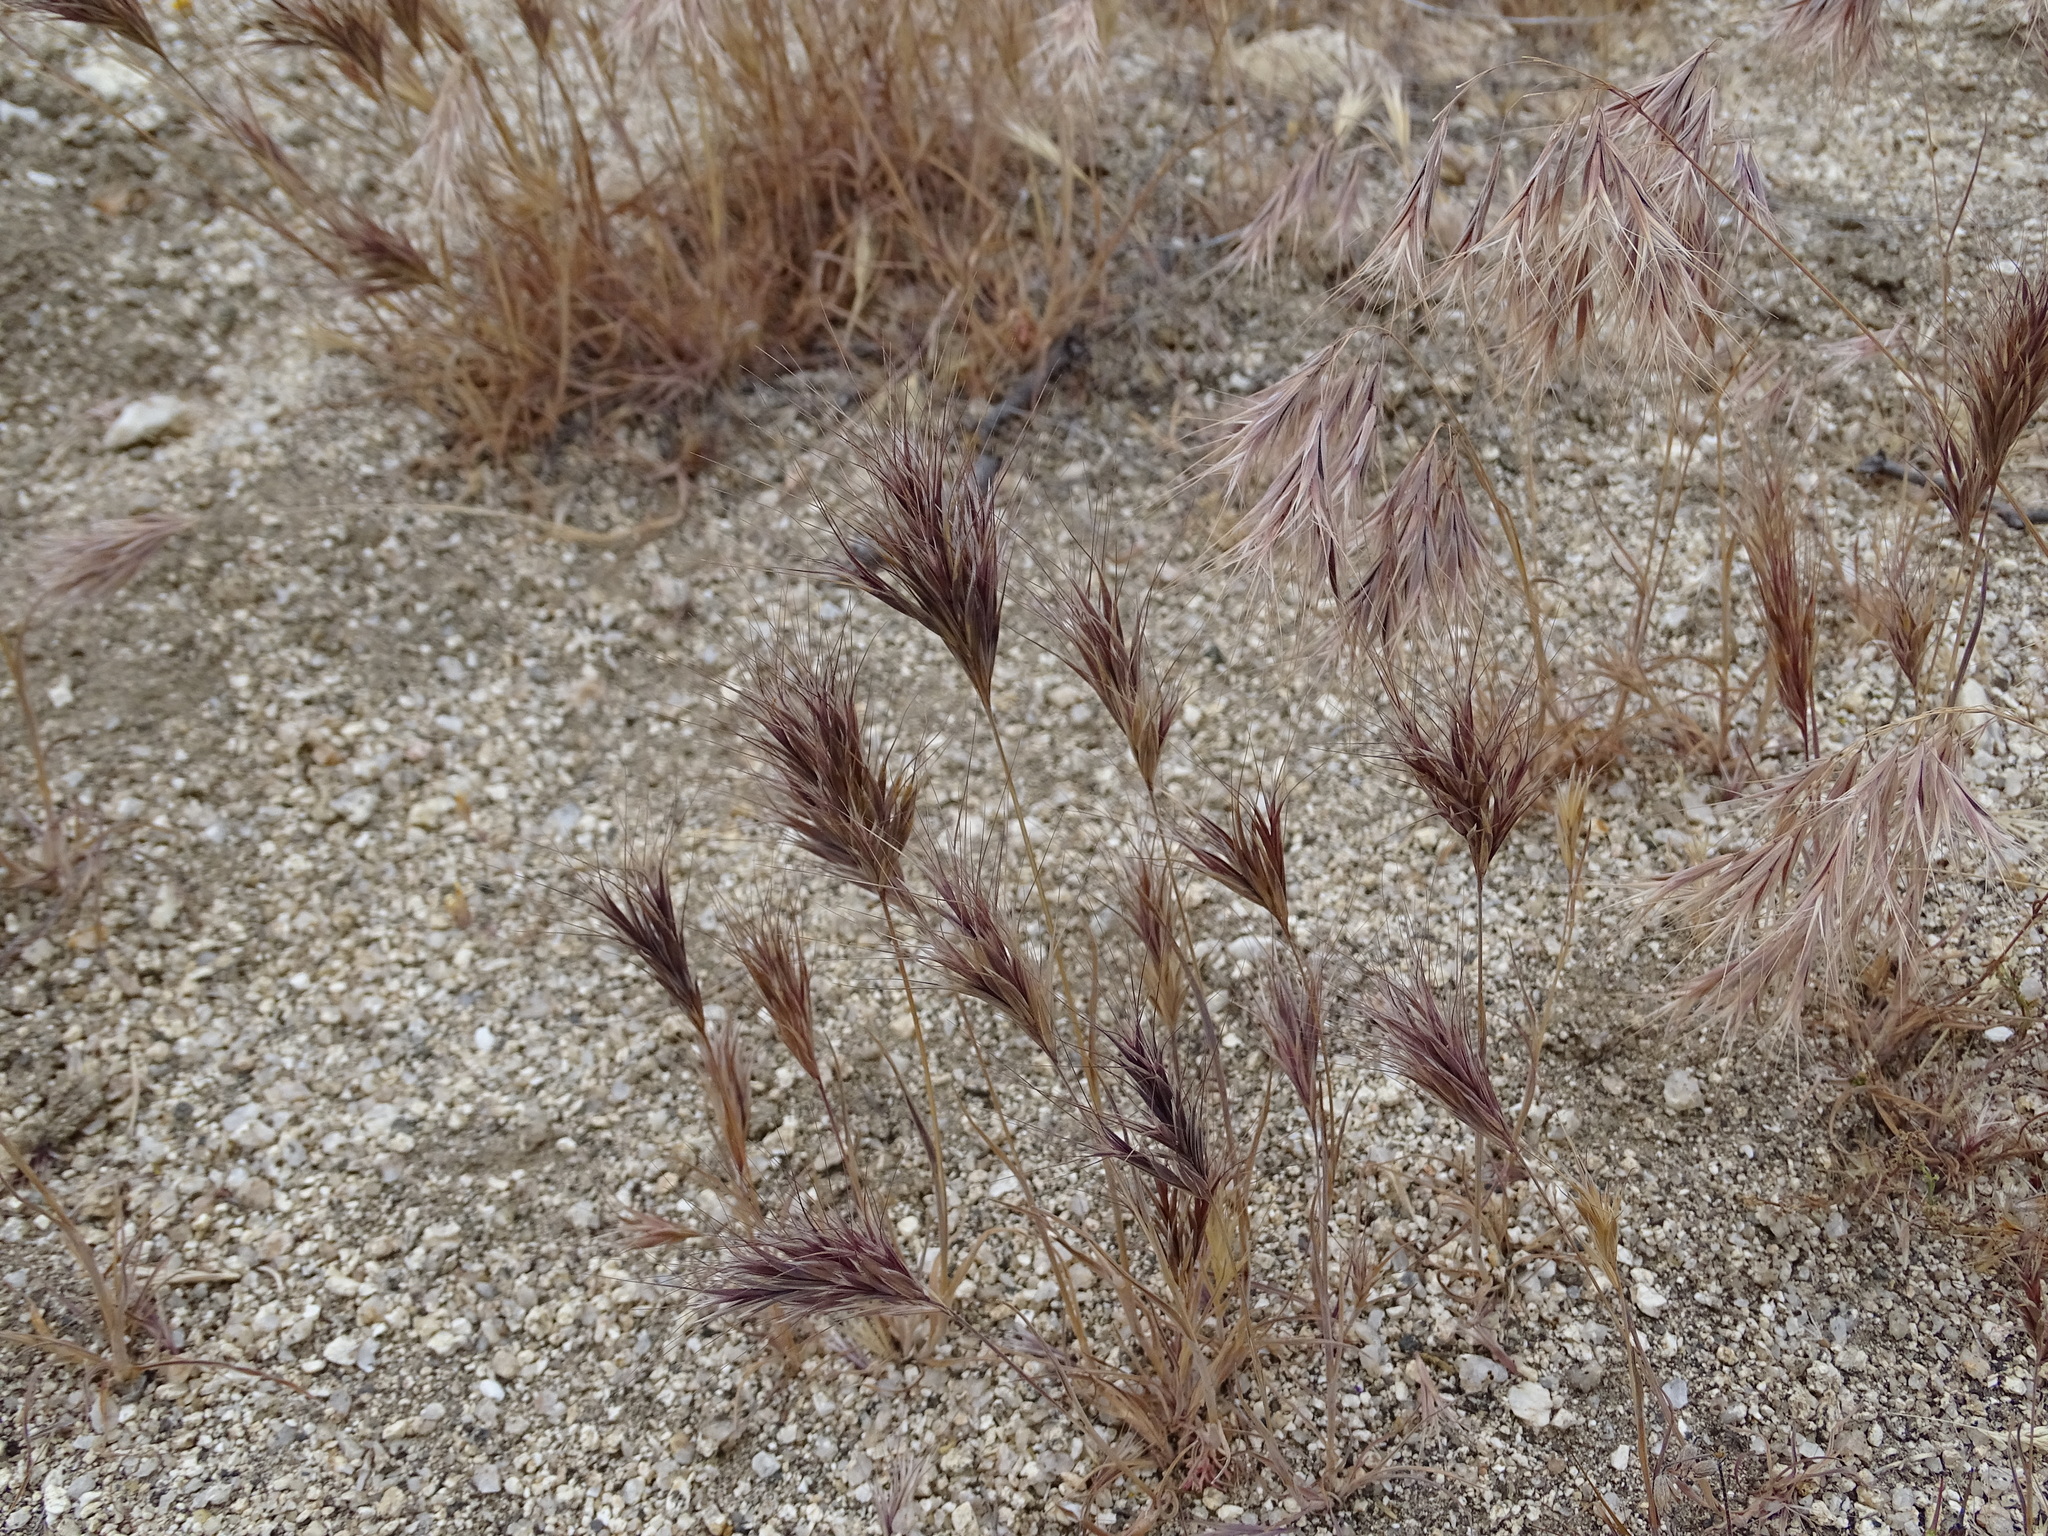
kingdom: Plantae
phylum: Tracheophyta
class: Liliopsida
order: Poales
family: Poaceae
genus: Bromus
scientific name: Bromus rubens
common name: Red brome
